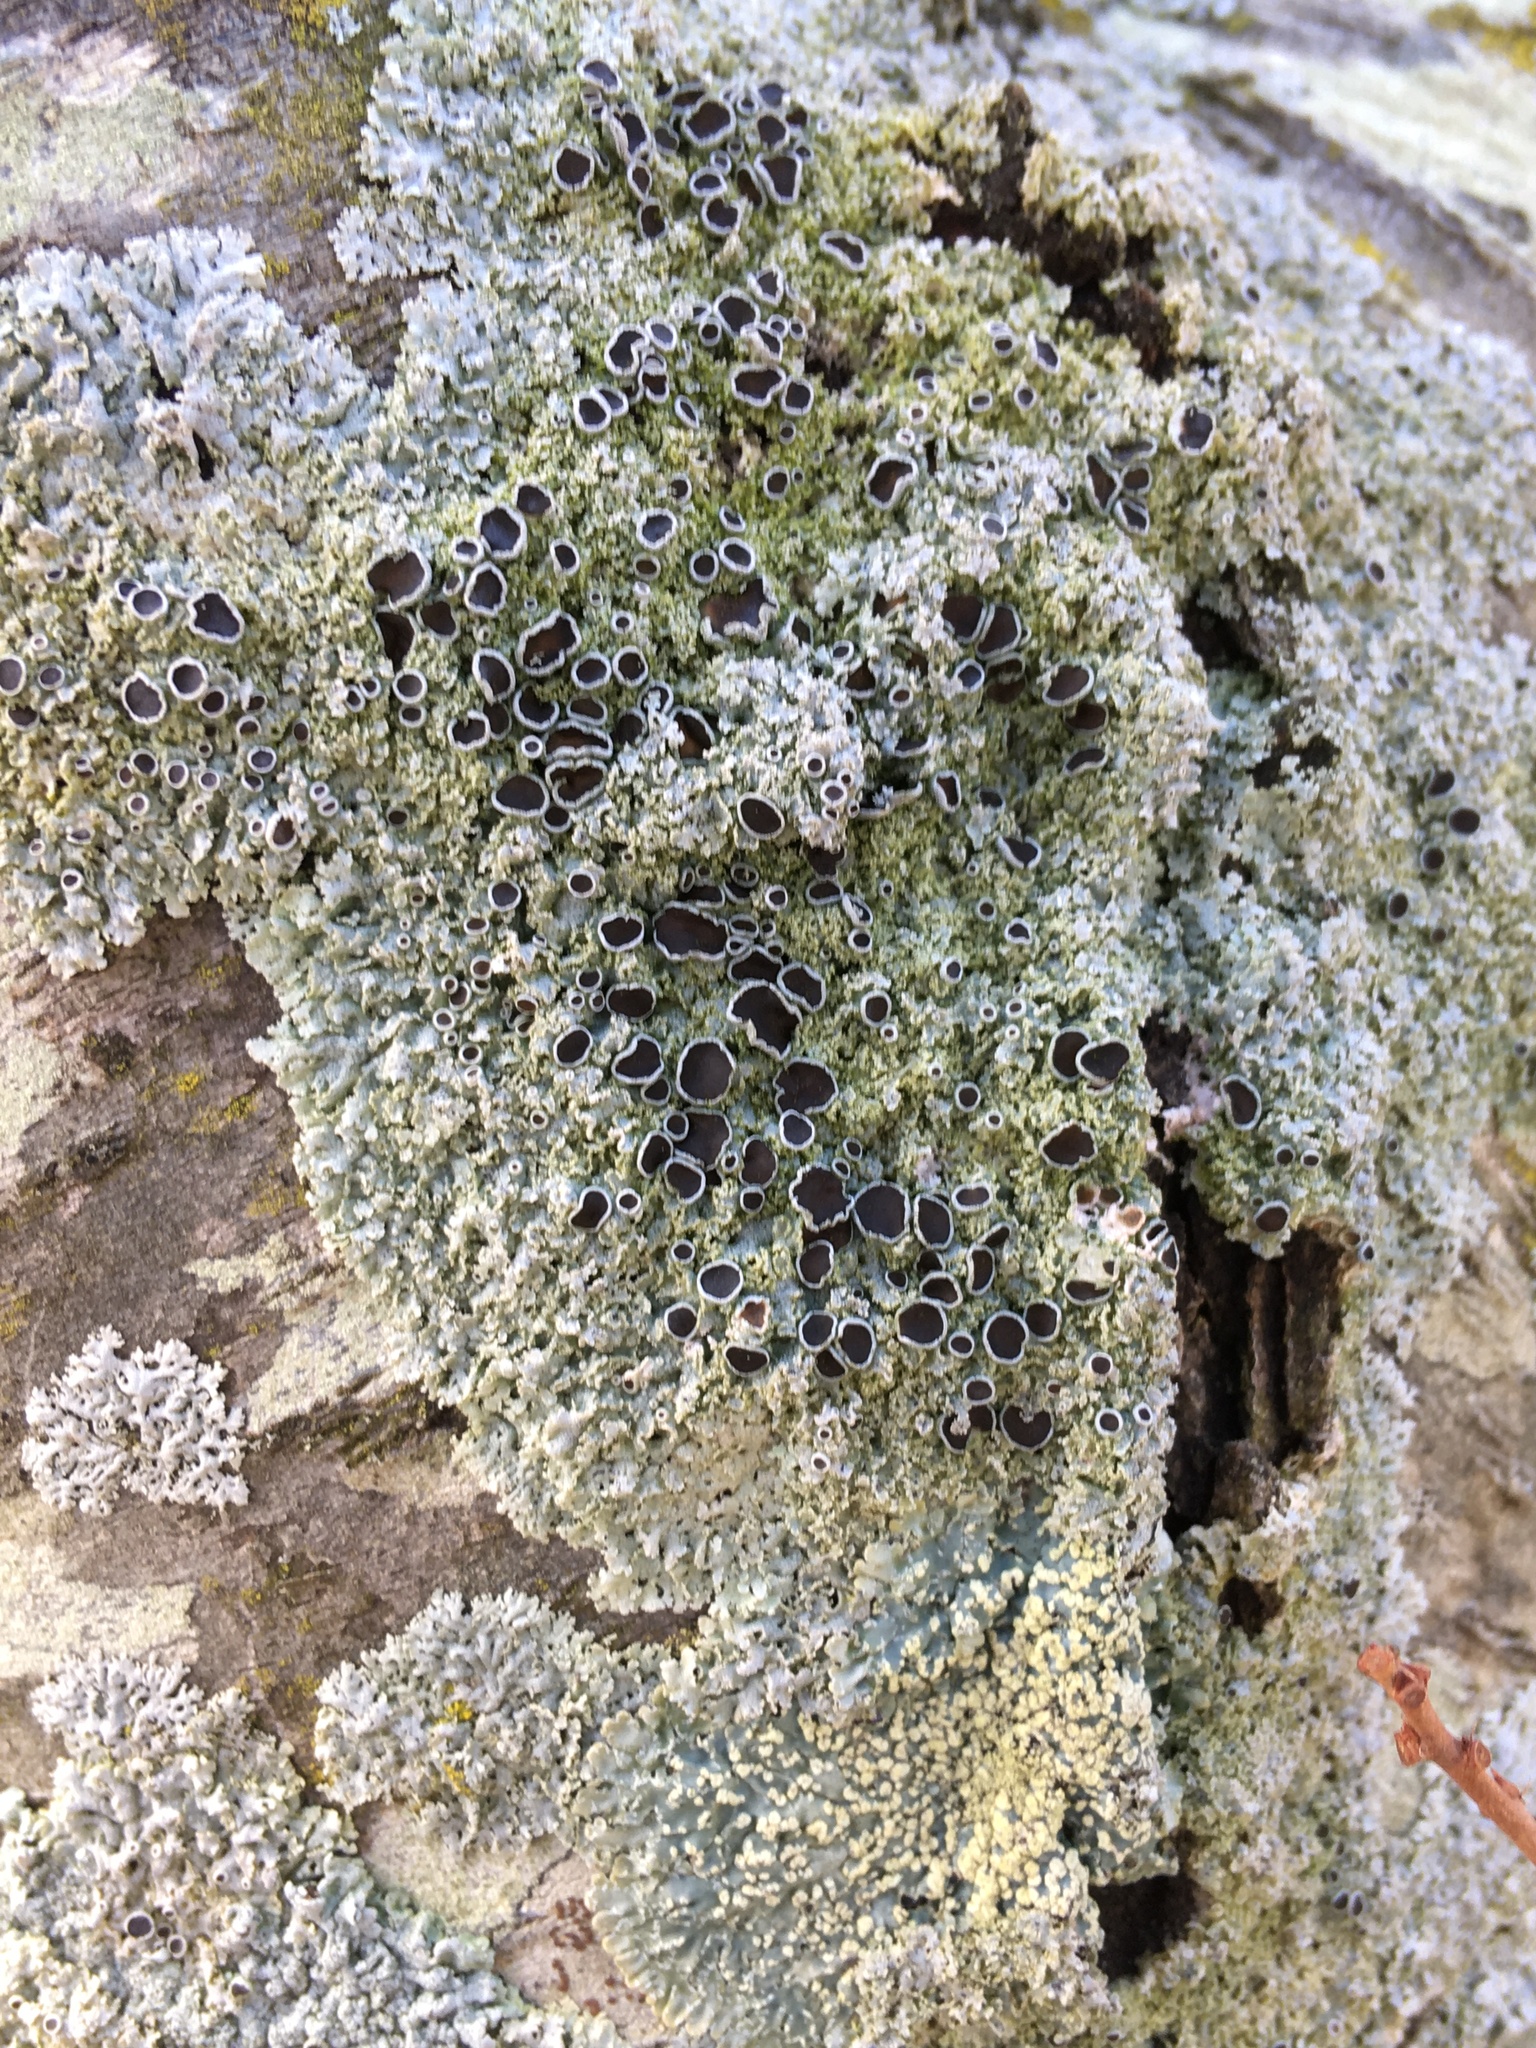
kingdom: Fungi
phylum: Ascomycota
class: Lecanoromycetes
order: Caliciales
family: Physciaceae
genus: Physcia
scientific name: Physcia millegrana
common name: Rosette lichen
